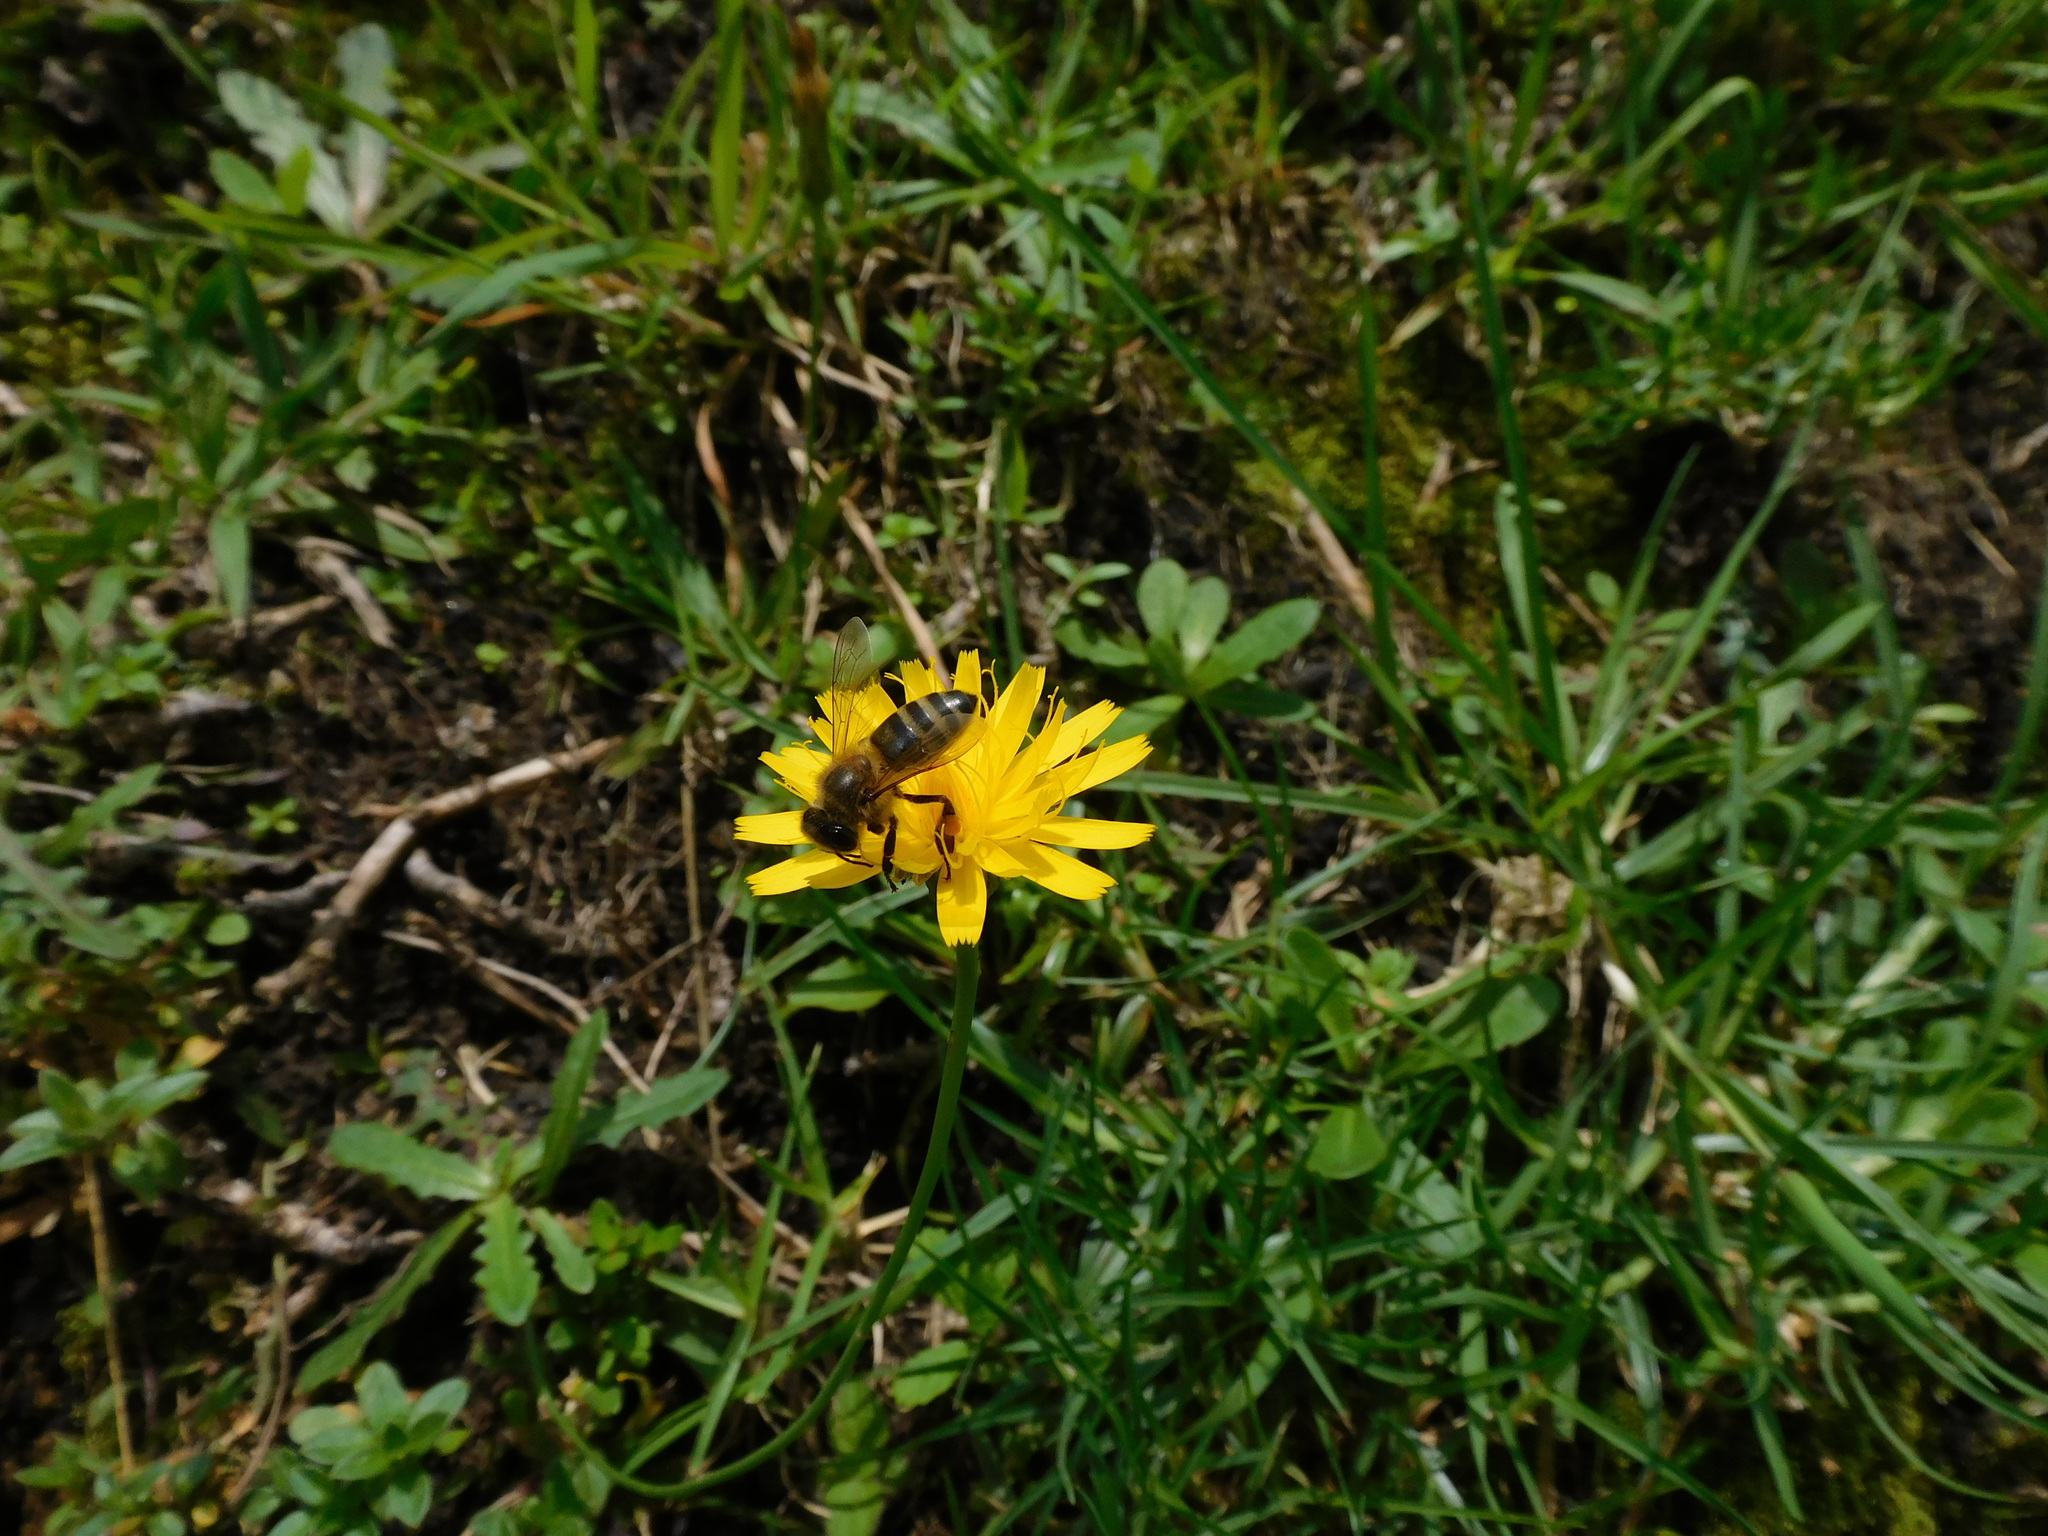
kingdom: Animalia
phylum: Arthropoda
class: Insecta
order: Hymenoptera
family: Apidae
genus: Apis
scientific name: Apis mellifera
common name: Honey bee
